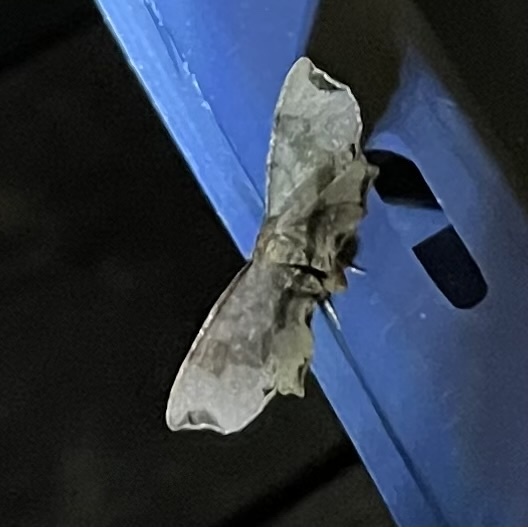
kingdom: Animalia
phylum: Arthropoda
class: Insecta
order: Lepidoptera
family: Geometridae
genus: Cepphis
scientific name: Cepphis decoloraria
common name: Dark scallop moth
